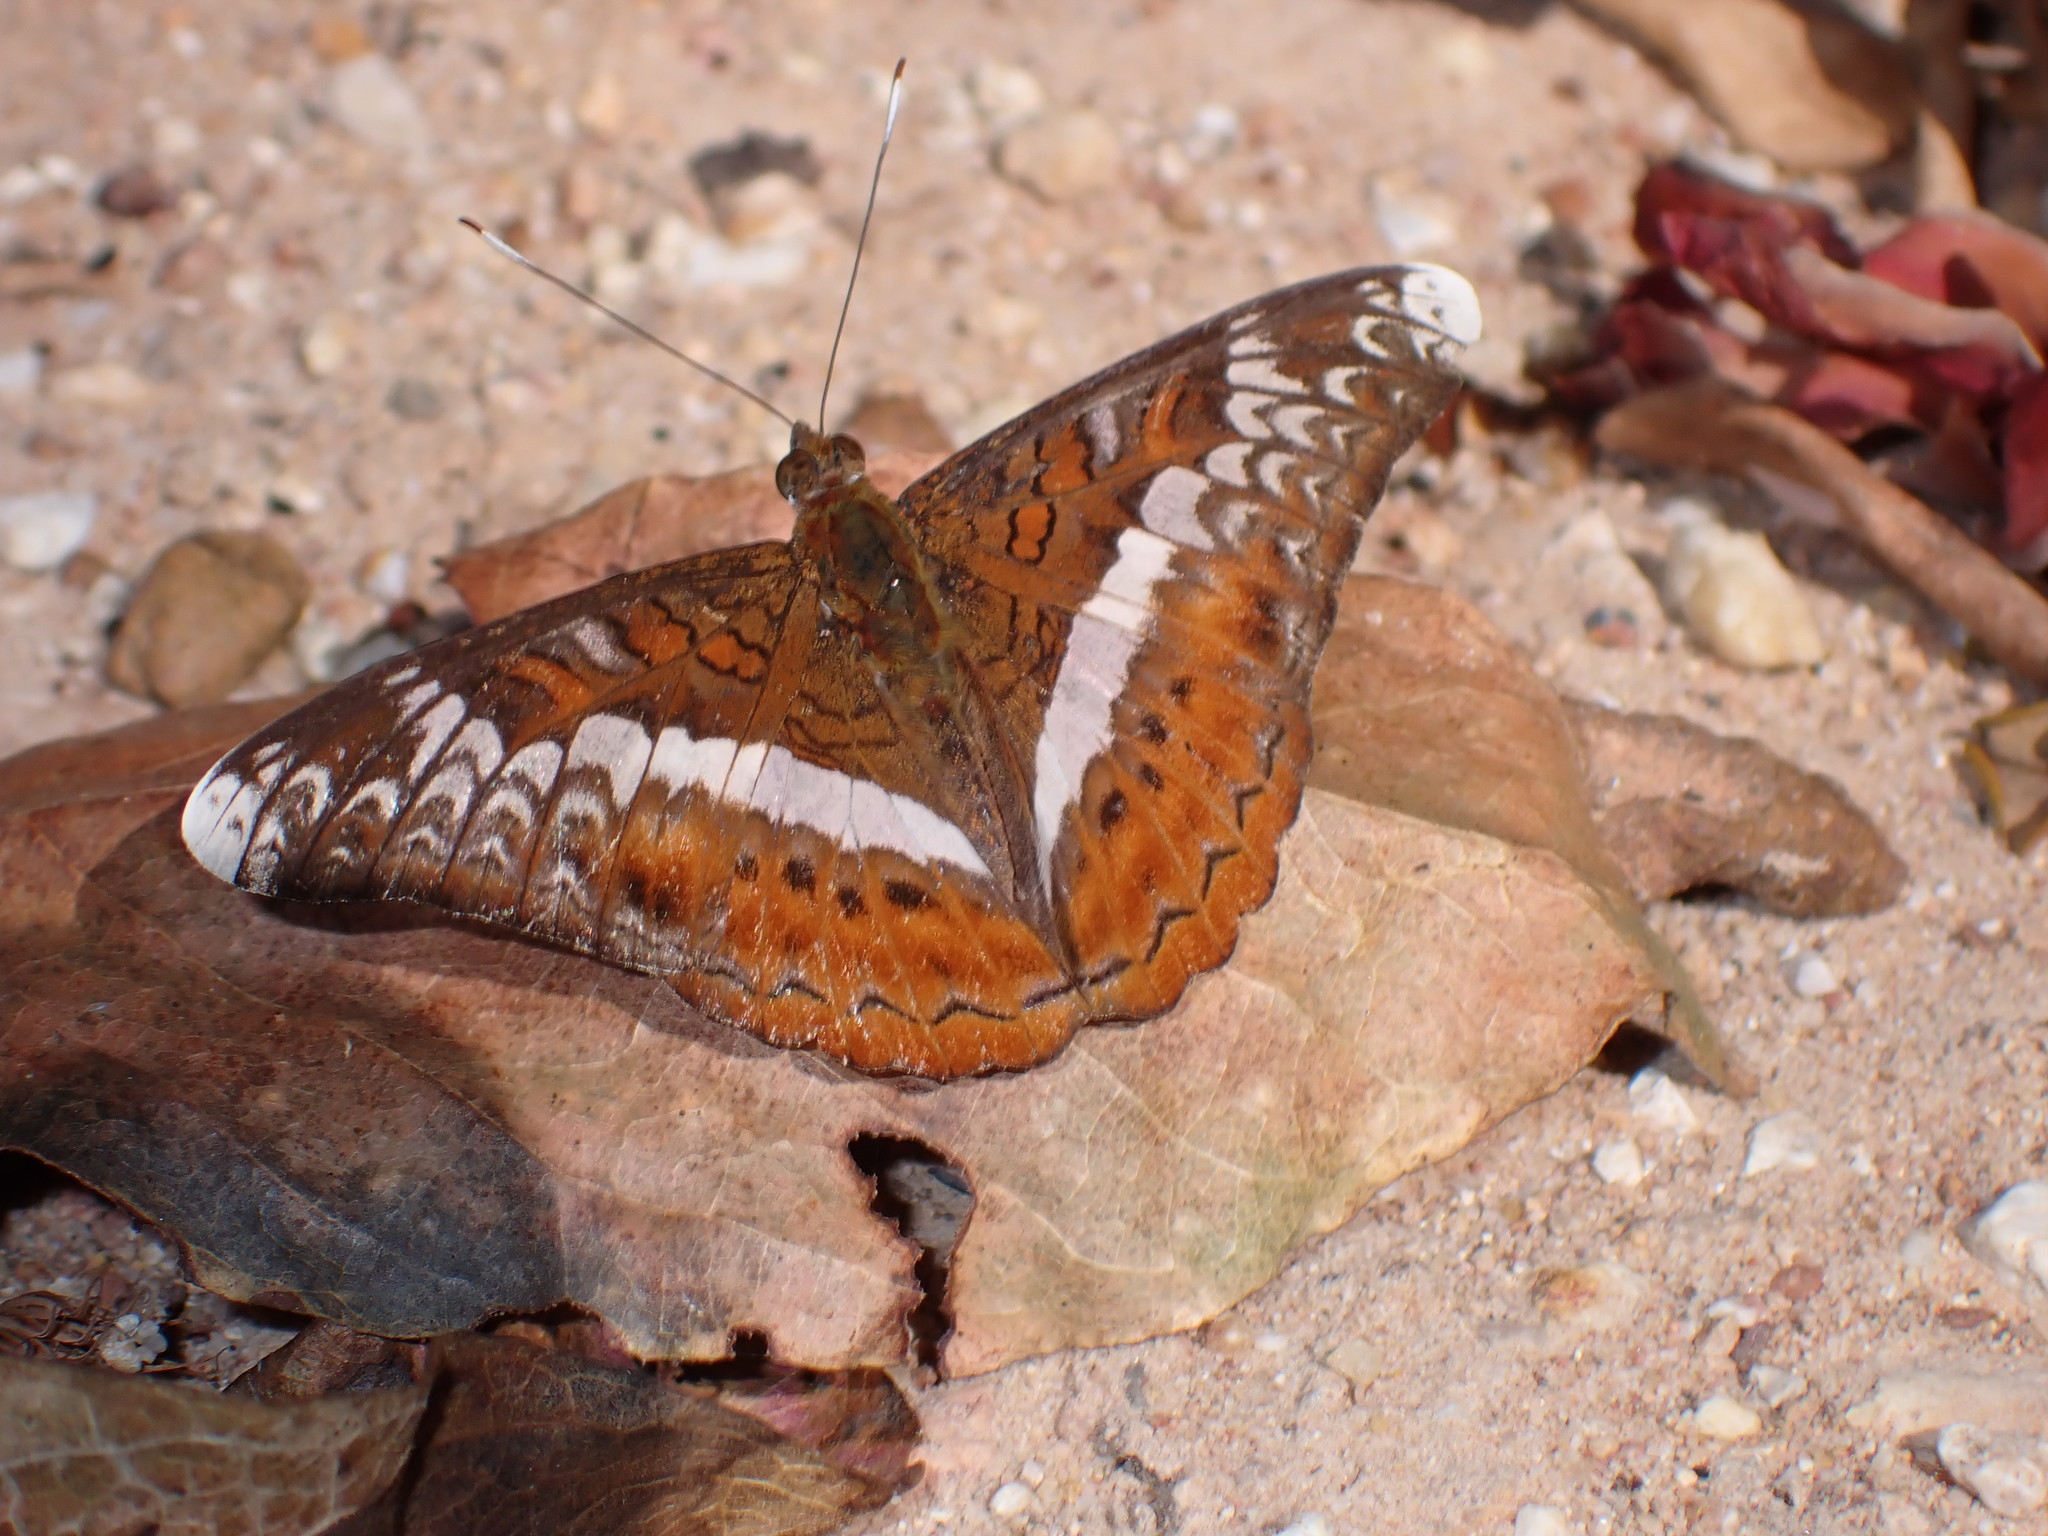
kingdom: Animalia
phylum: Arthropoda
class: Insecta
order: Lepidoptera
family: Nymphalidae
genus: Lebadea
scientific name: Lebadea martha
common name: Knight
